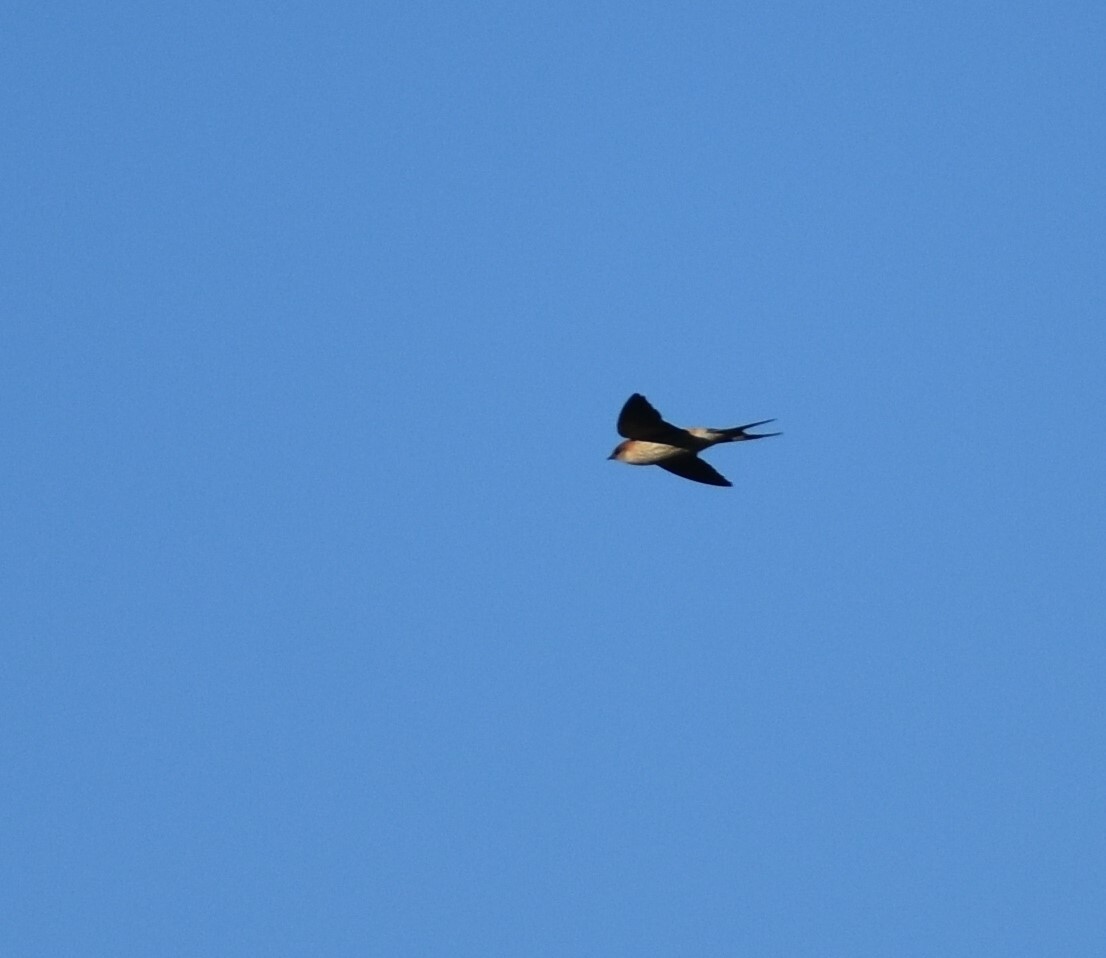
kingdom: Animalia
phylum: Chordata
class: Aves
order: Passeriformes
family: Hirundinidae
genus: Cecropis
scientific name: Cecropis cucullata
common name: Greater striped-swallow
